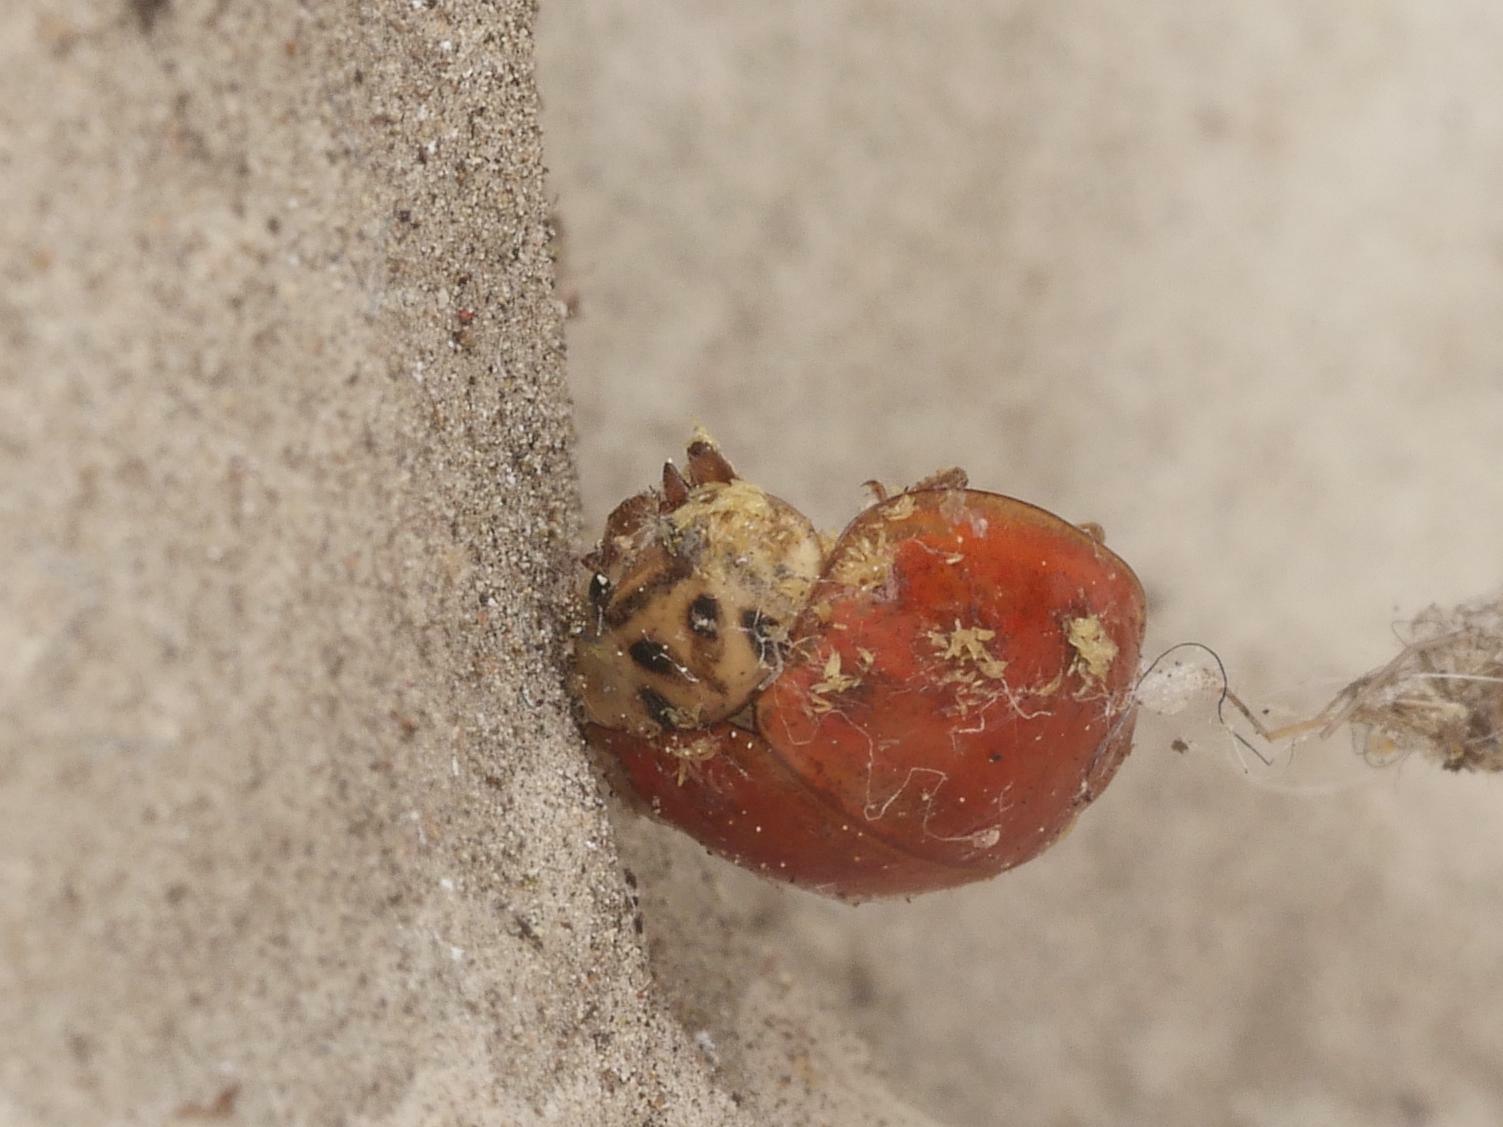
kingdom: Fungi
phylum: Ascomycota
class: Laboulbeniomycetes
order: Laboulbeniales
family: Laboulbeniaceae
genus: Hesperomyces
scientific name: Hesperomyces harmoniae
